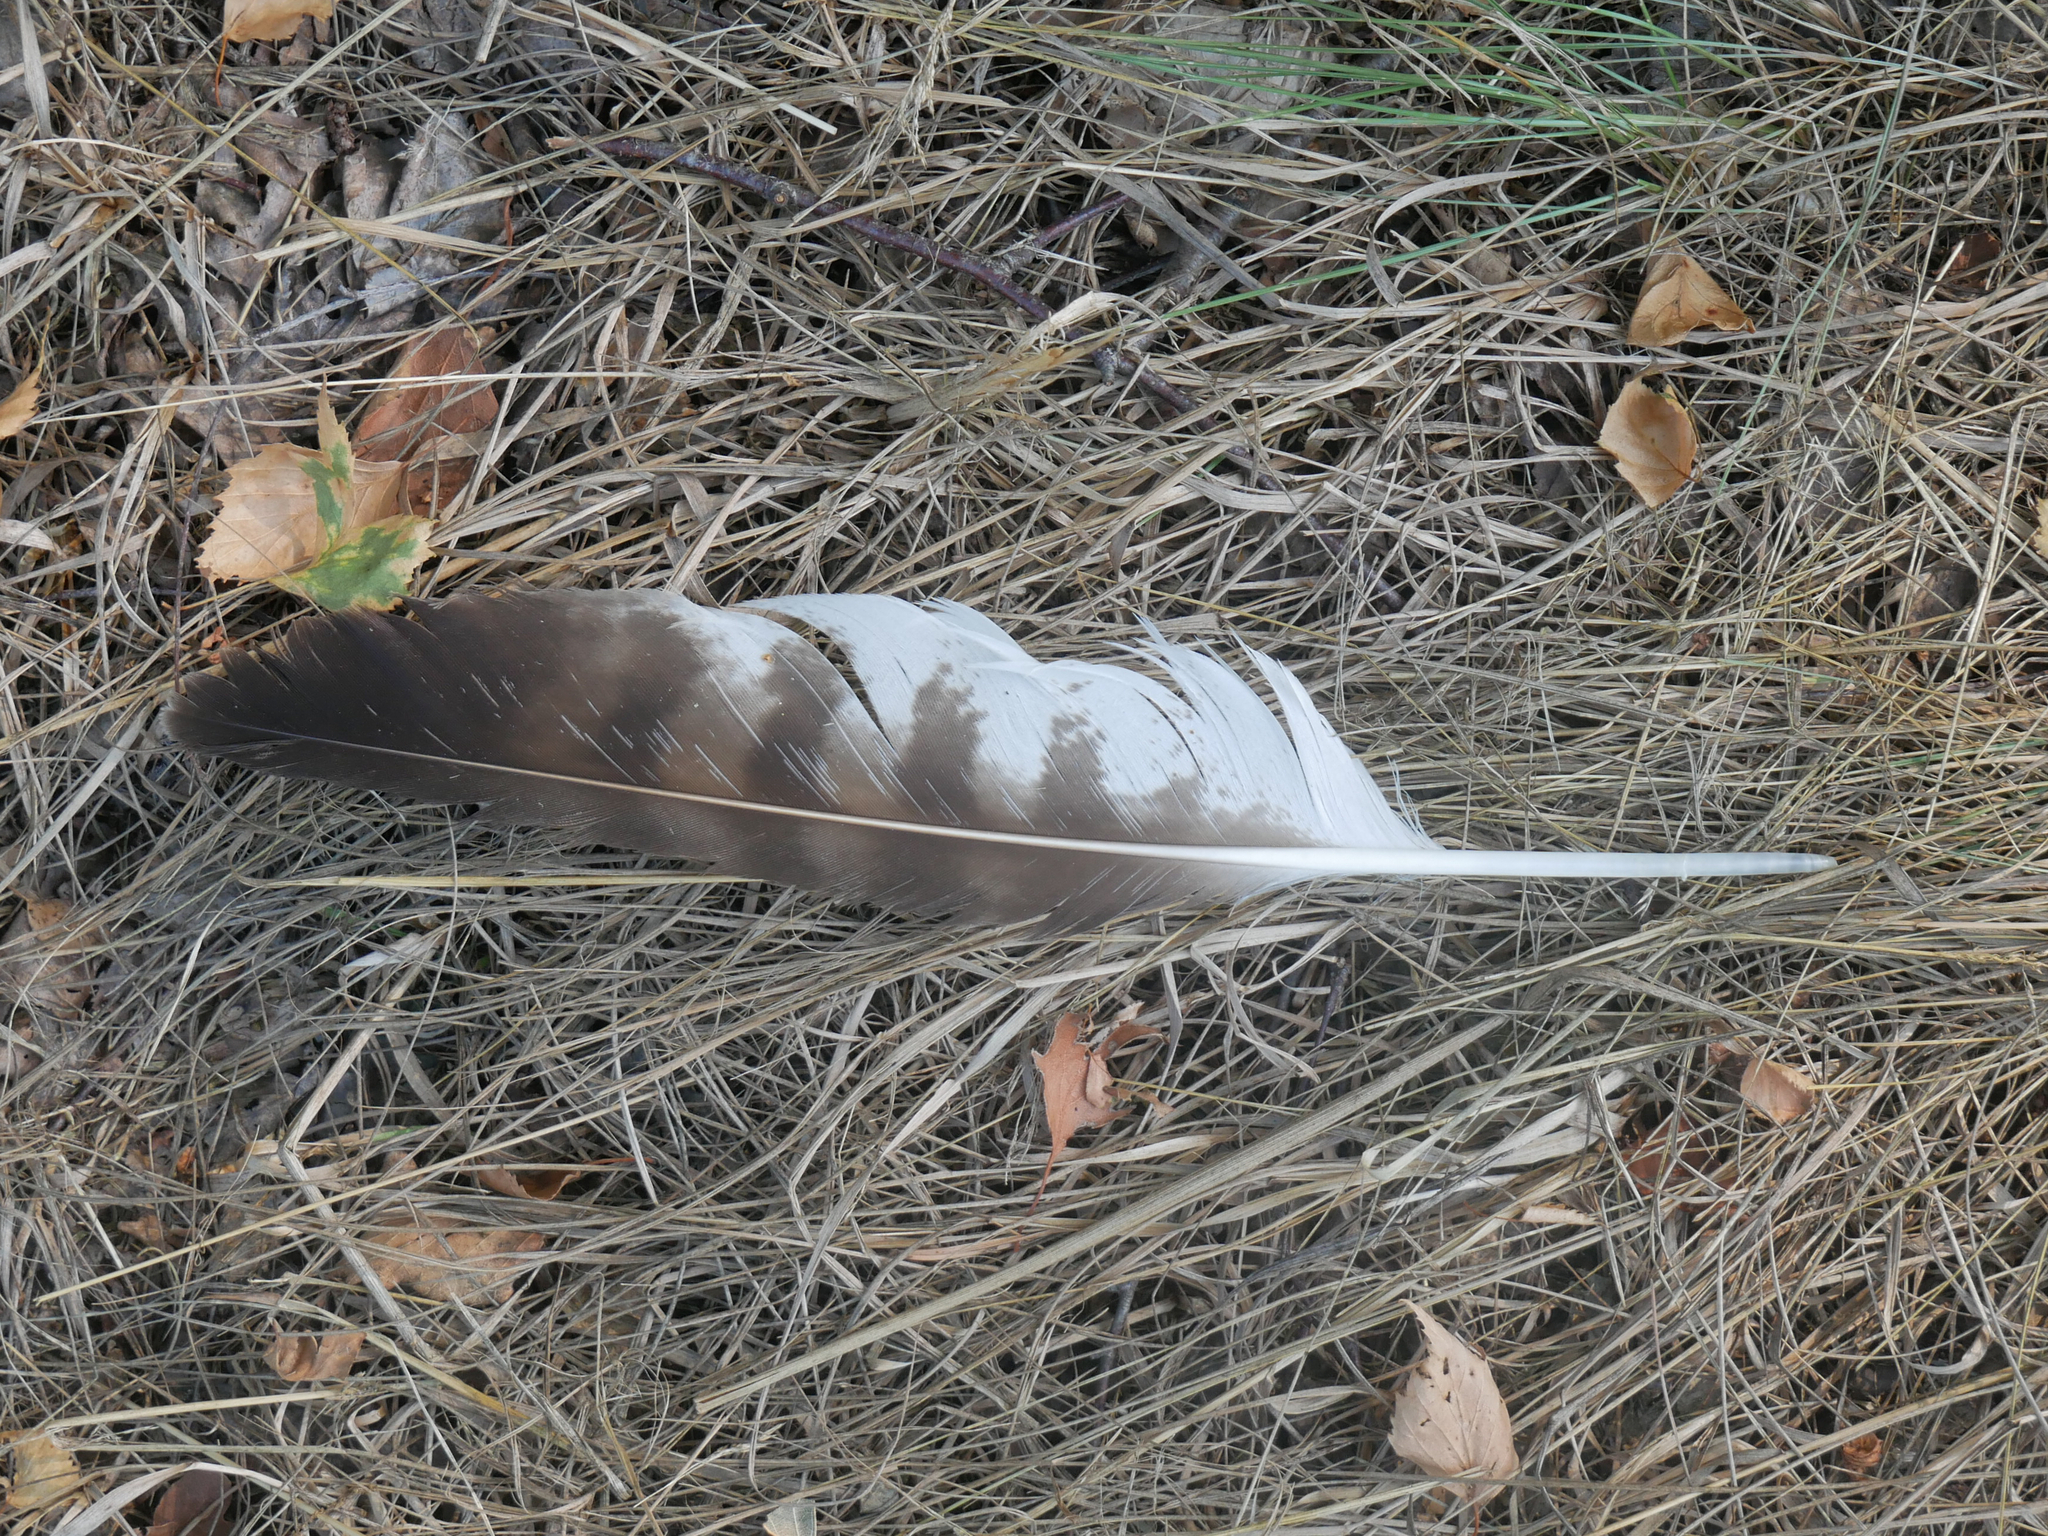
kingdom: Animalia
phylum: Chordata
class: Aves
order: Accipitriformes
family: Accipitridae
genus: Buteo
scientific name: Buteo buteo
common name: Common buzzard
